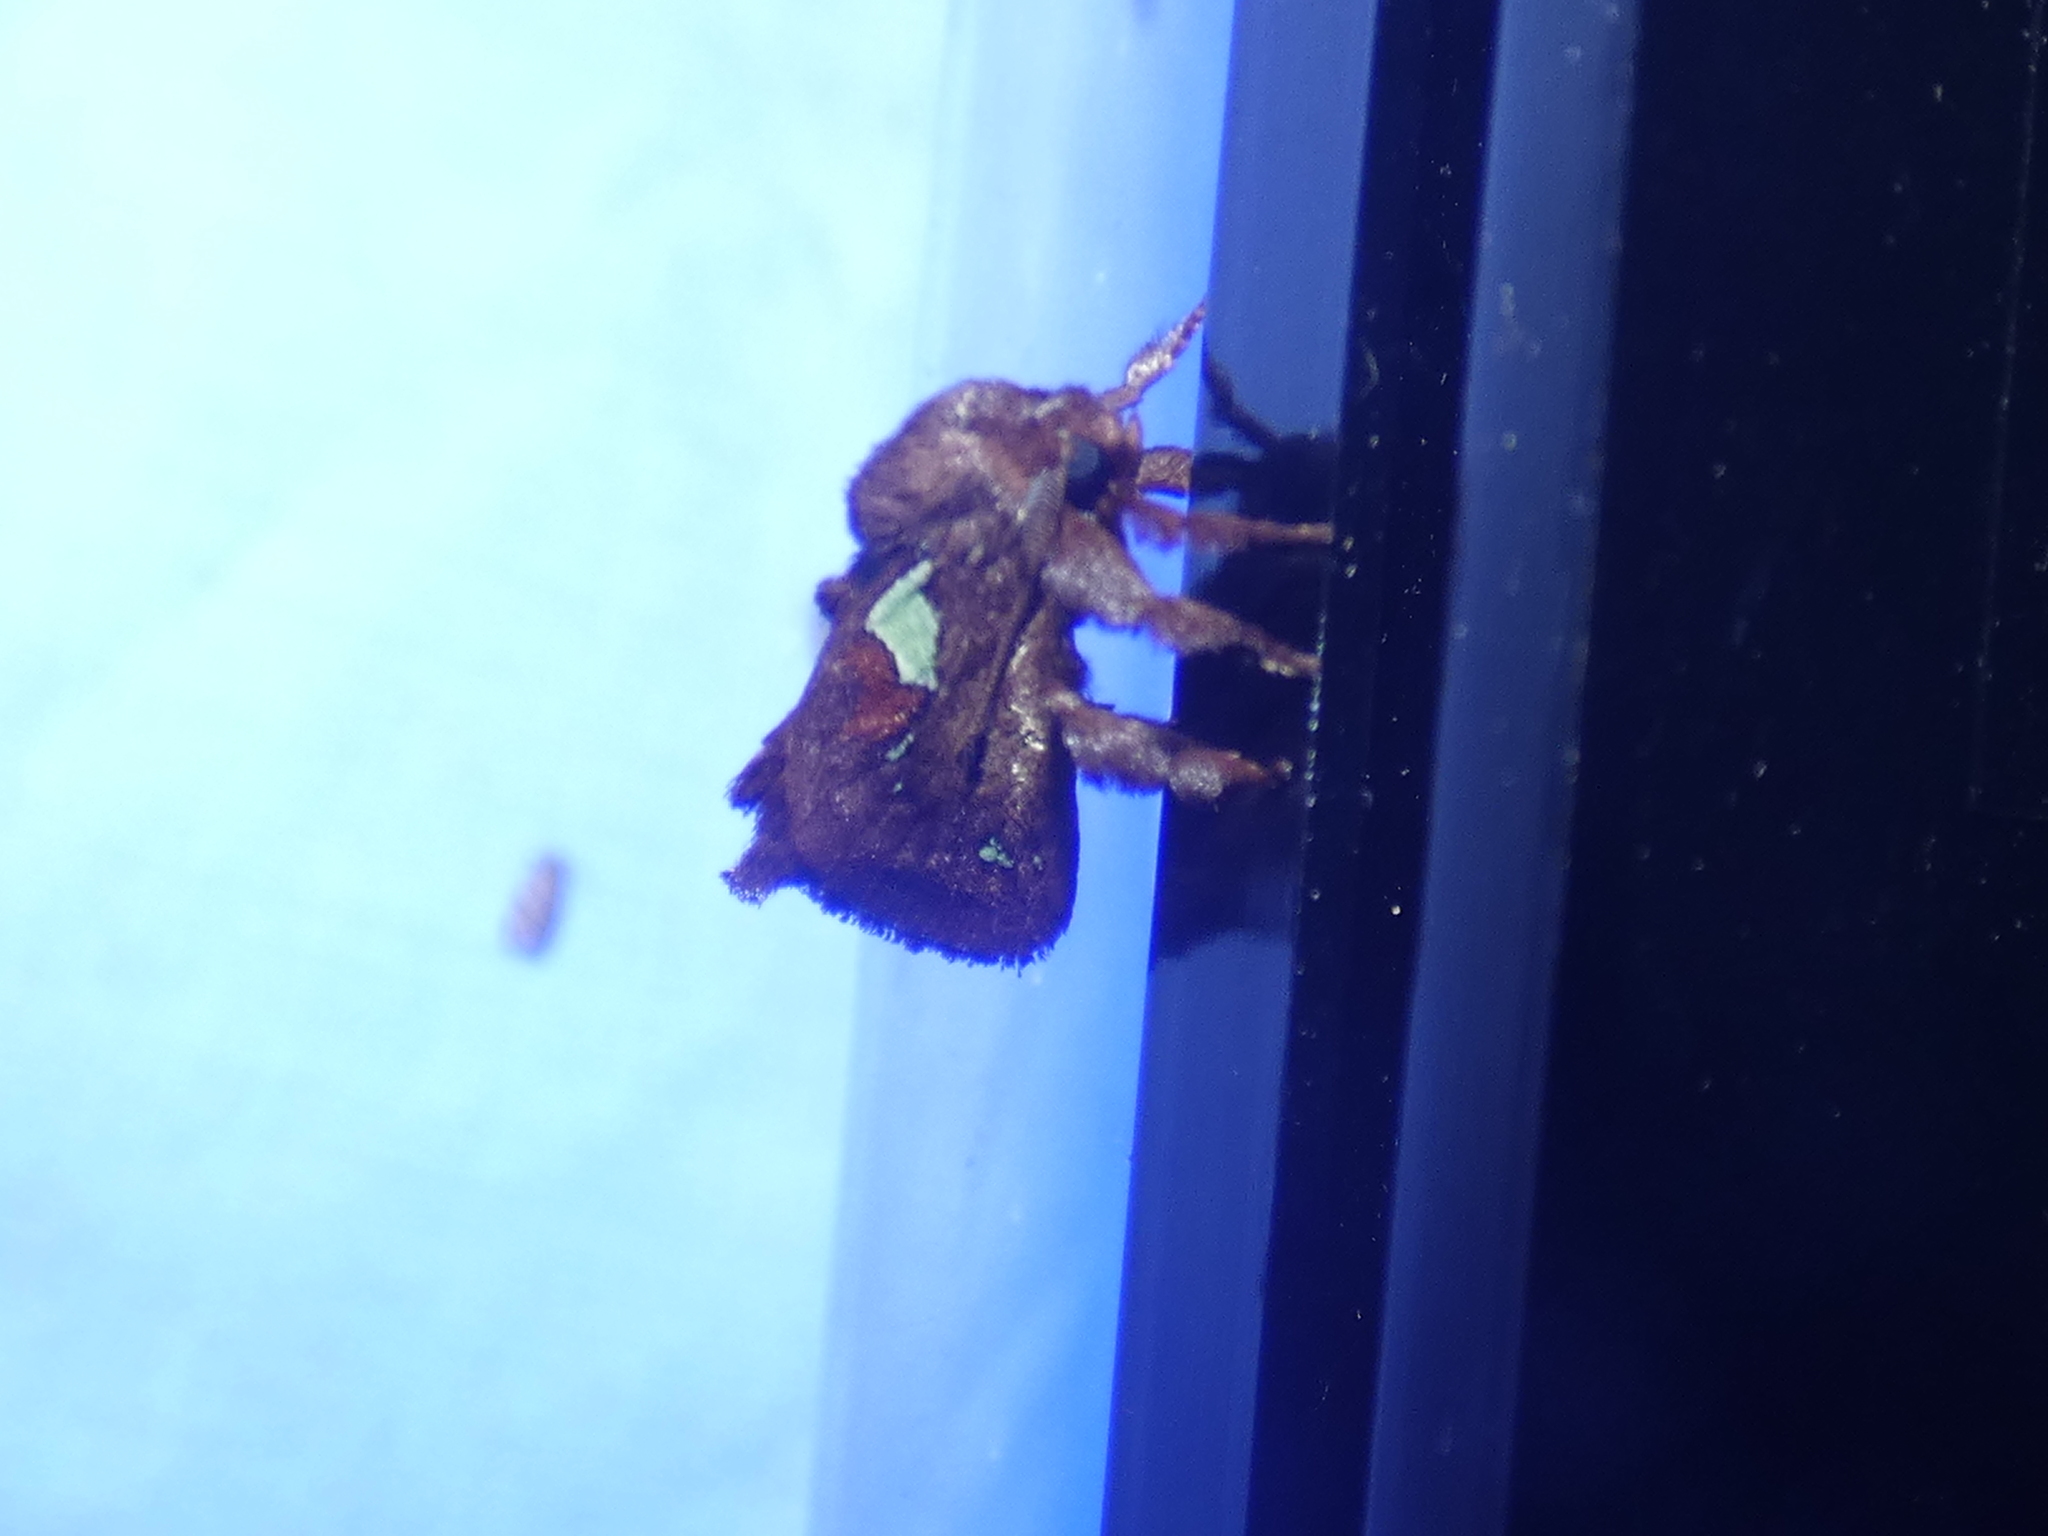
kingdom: Animalia
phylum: Arthropoda
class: Insecta
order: Lepidoptera
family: Limacodidae
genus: Euclea
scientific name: Euclea delphinii
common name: Spiny oak-slug moth
